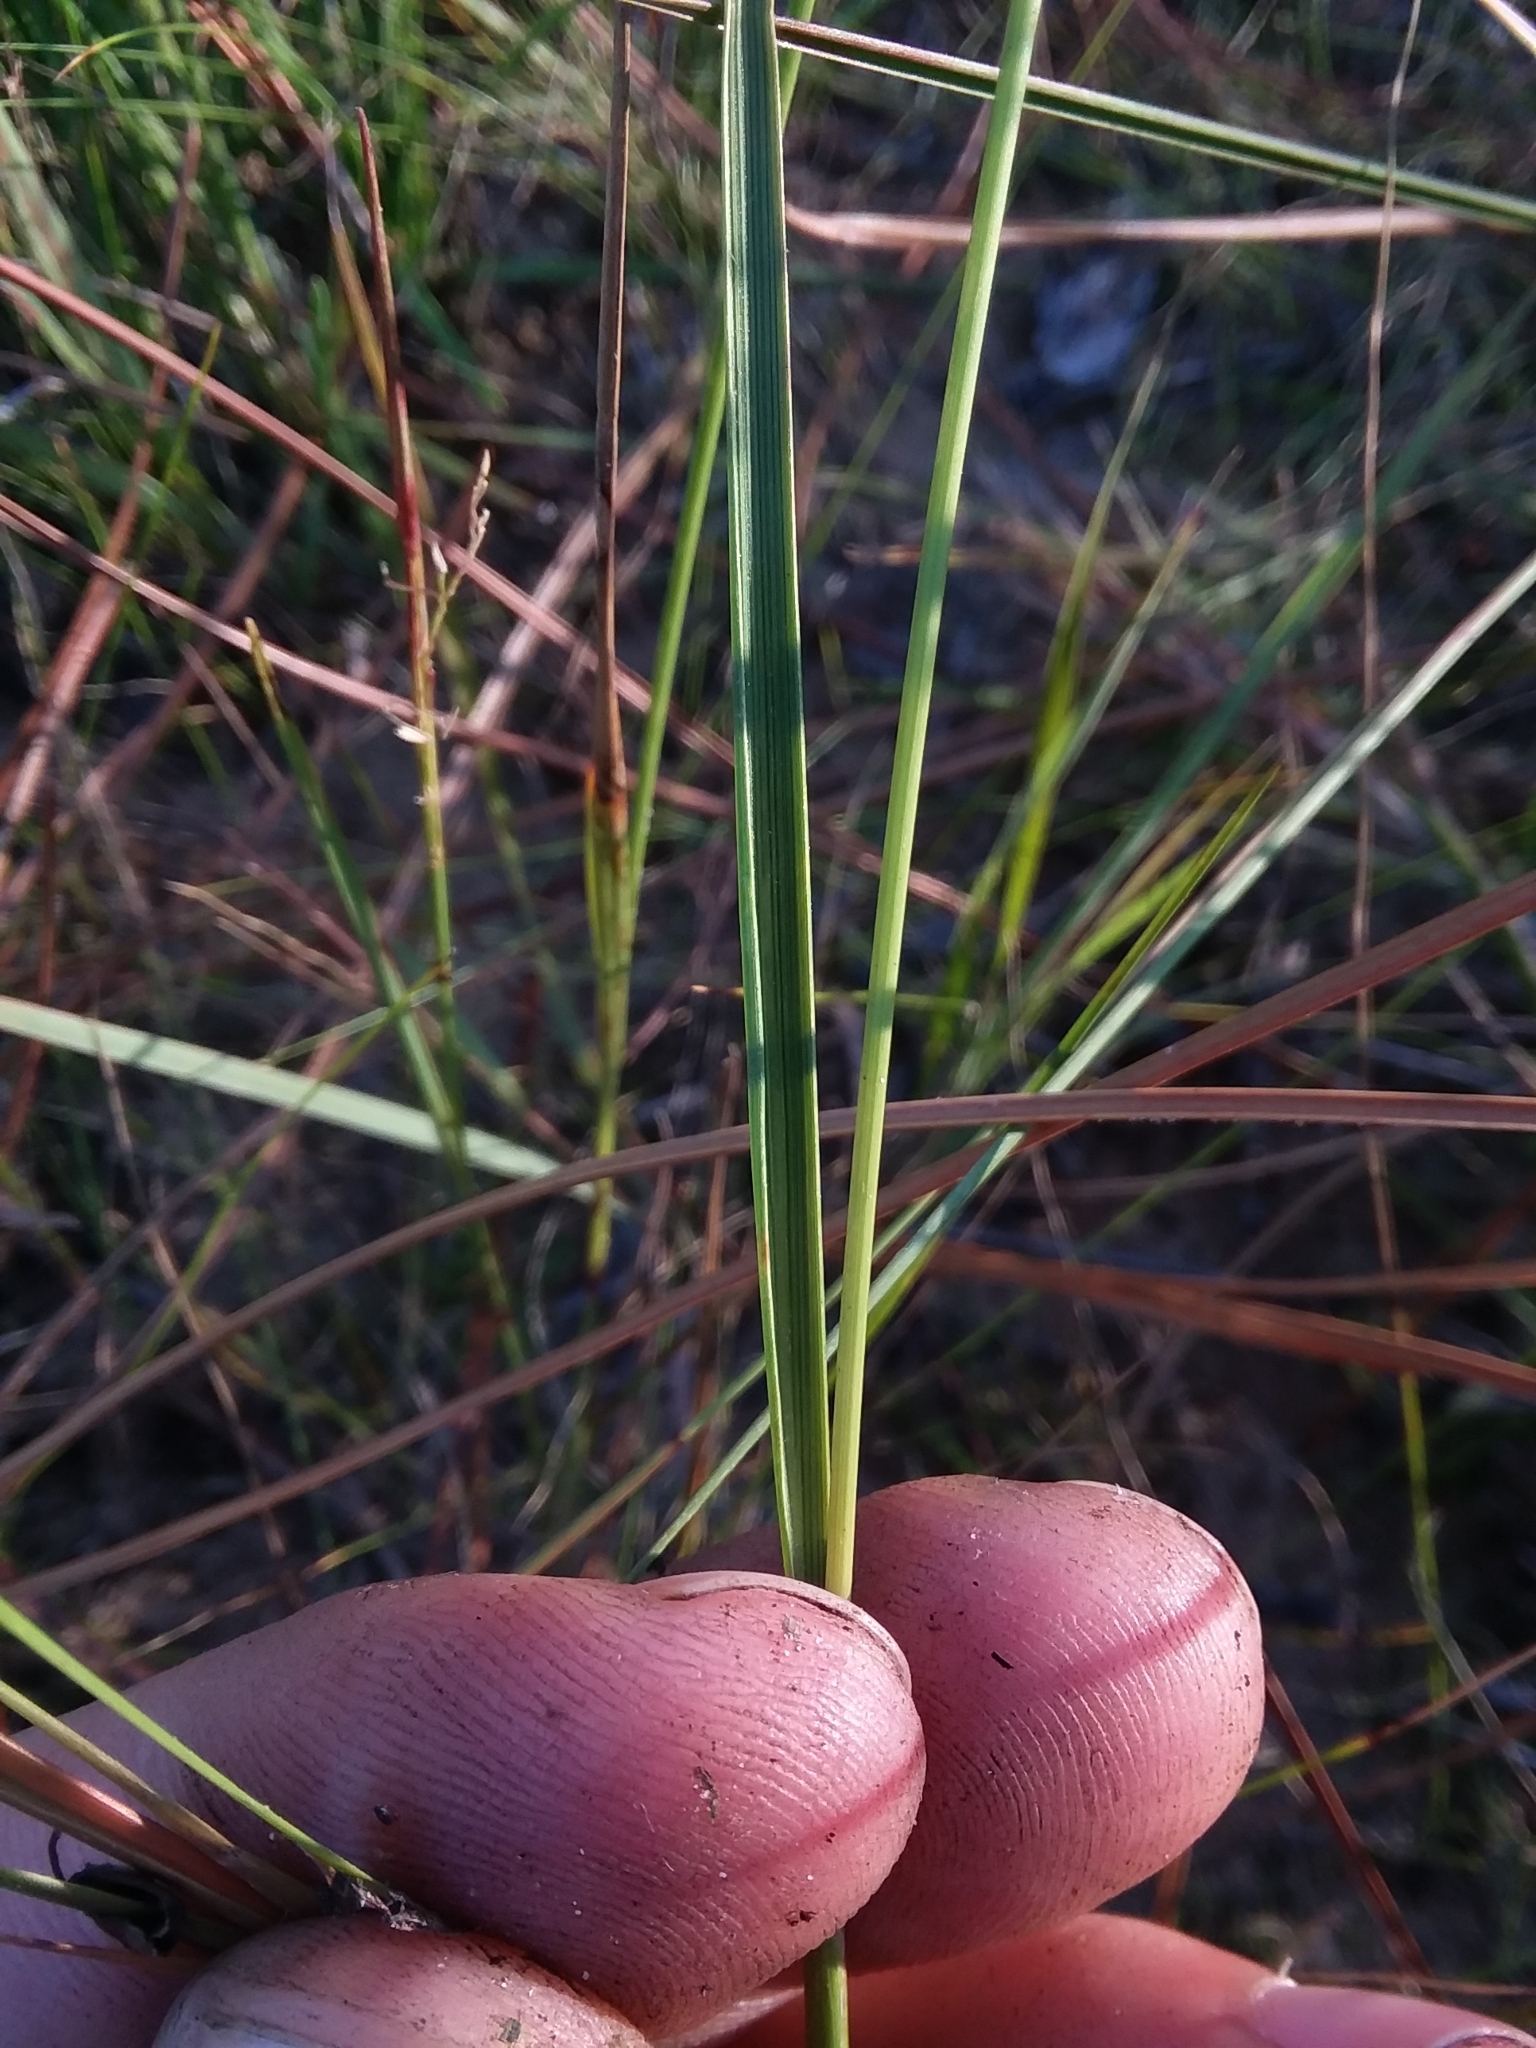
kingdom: Plantae
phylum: Tracheophyta
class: Liliopsida
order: Poales
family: Poaceae
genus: Coleataenia
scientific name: Coleataenia tenera
